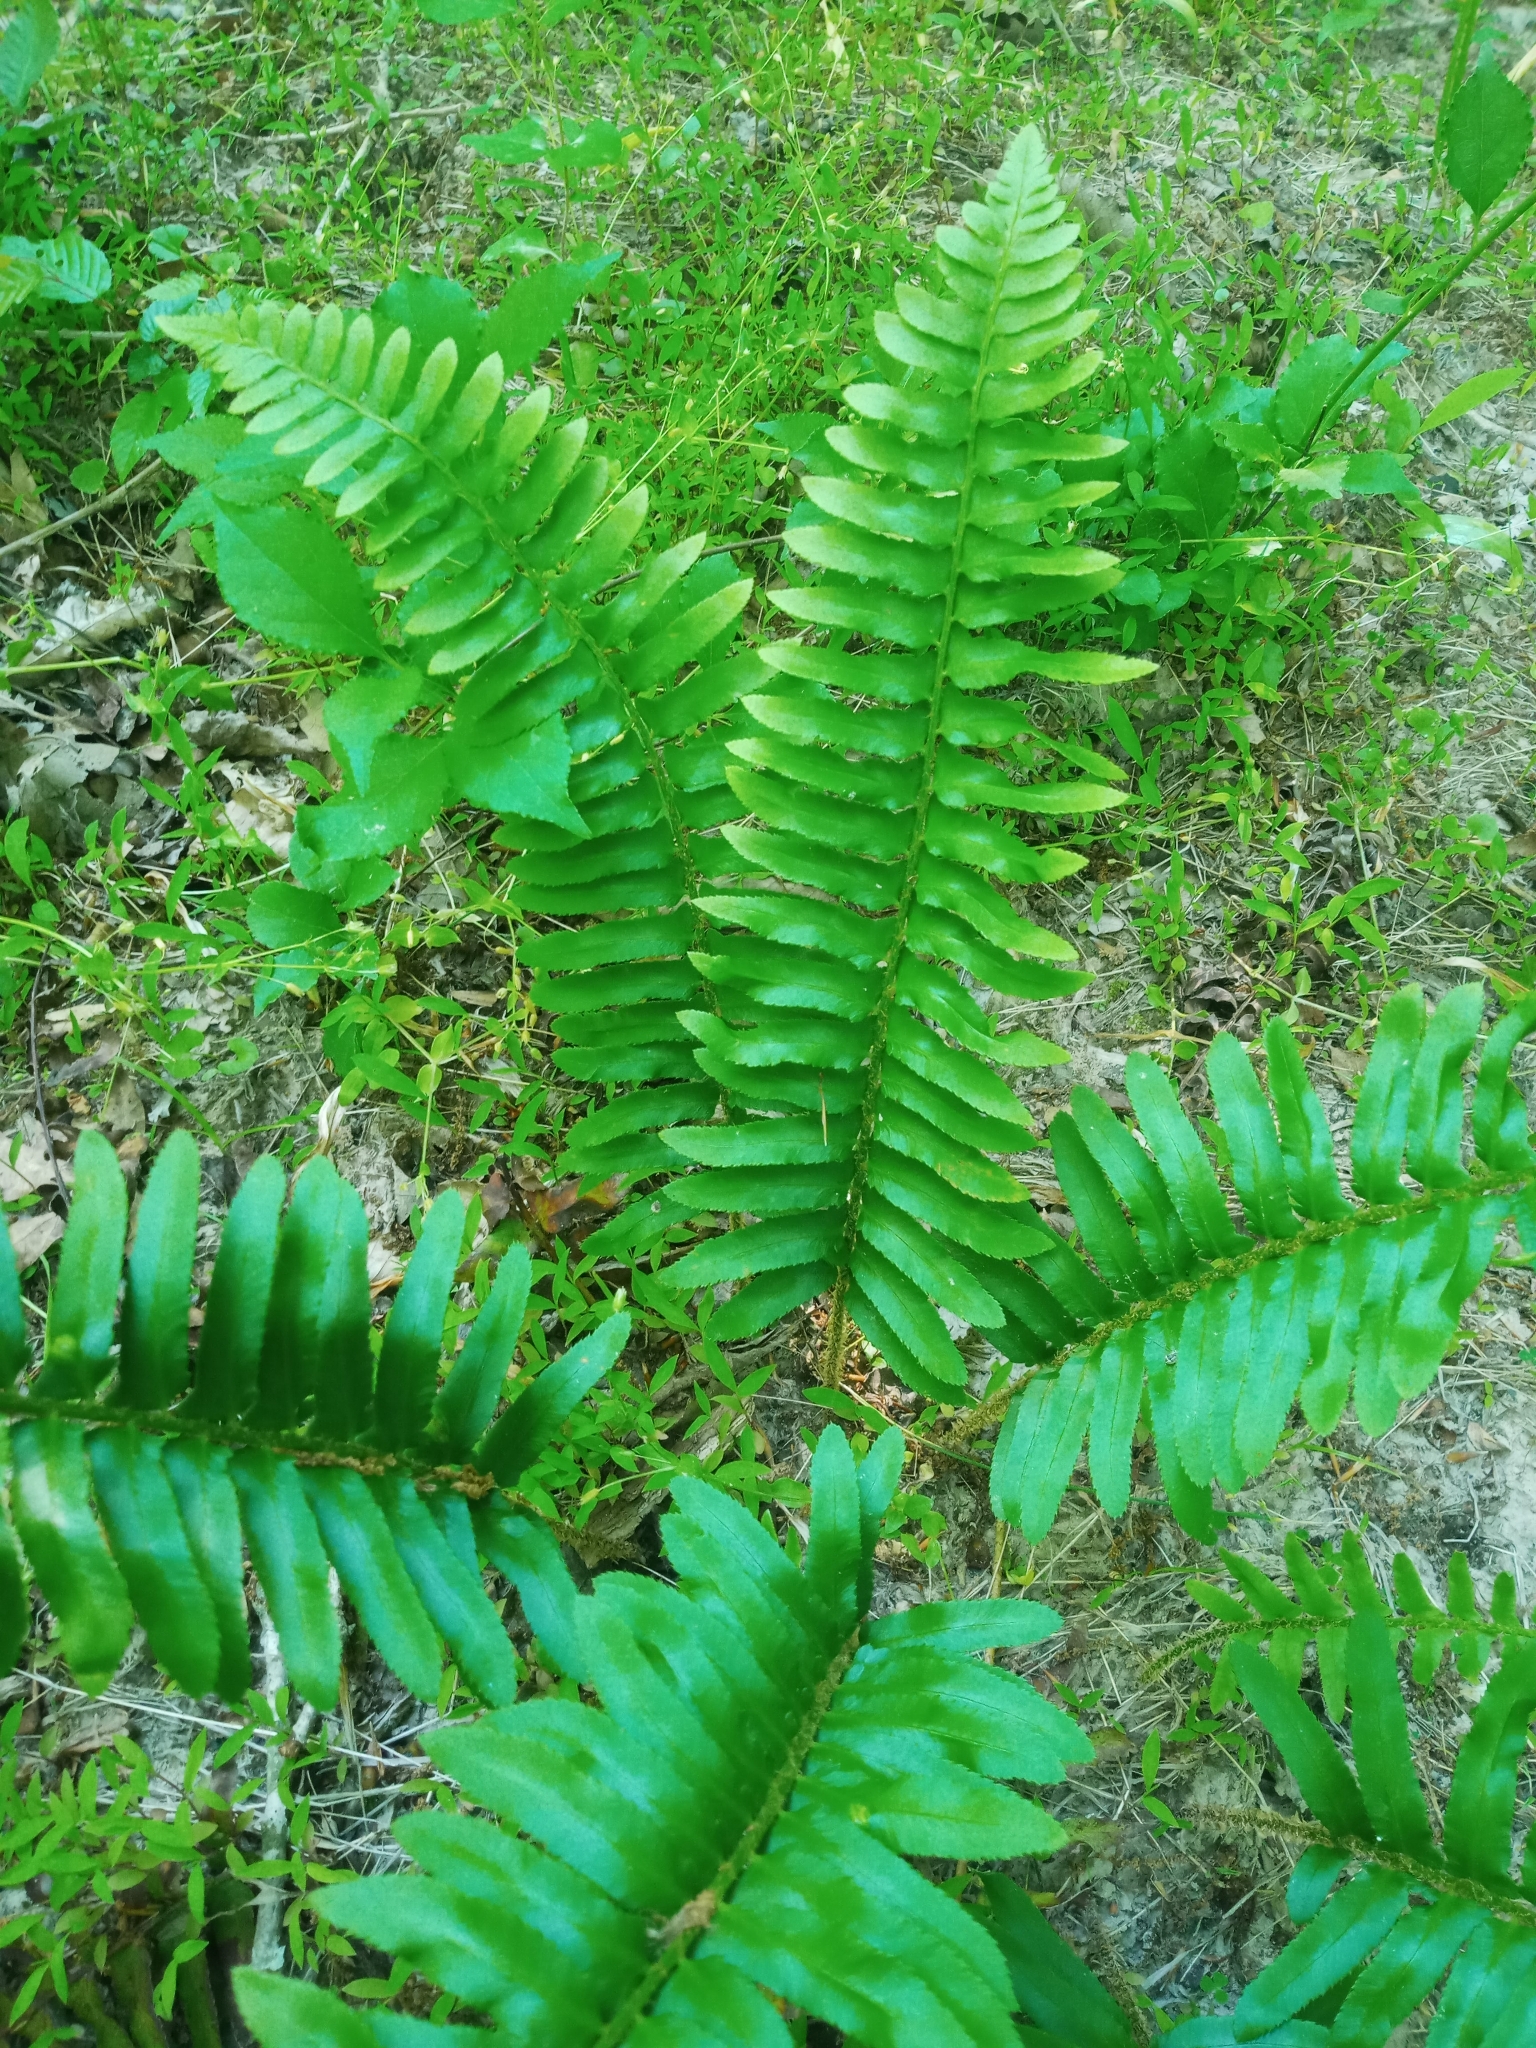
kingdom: Plantae
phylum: Tracheophyta
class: Polypodiopsida
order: Polypodiales
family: Dryopteridaceae
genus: Polystichum
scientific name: Polystichum acrostichoides
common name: Christmas fern
